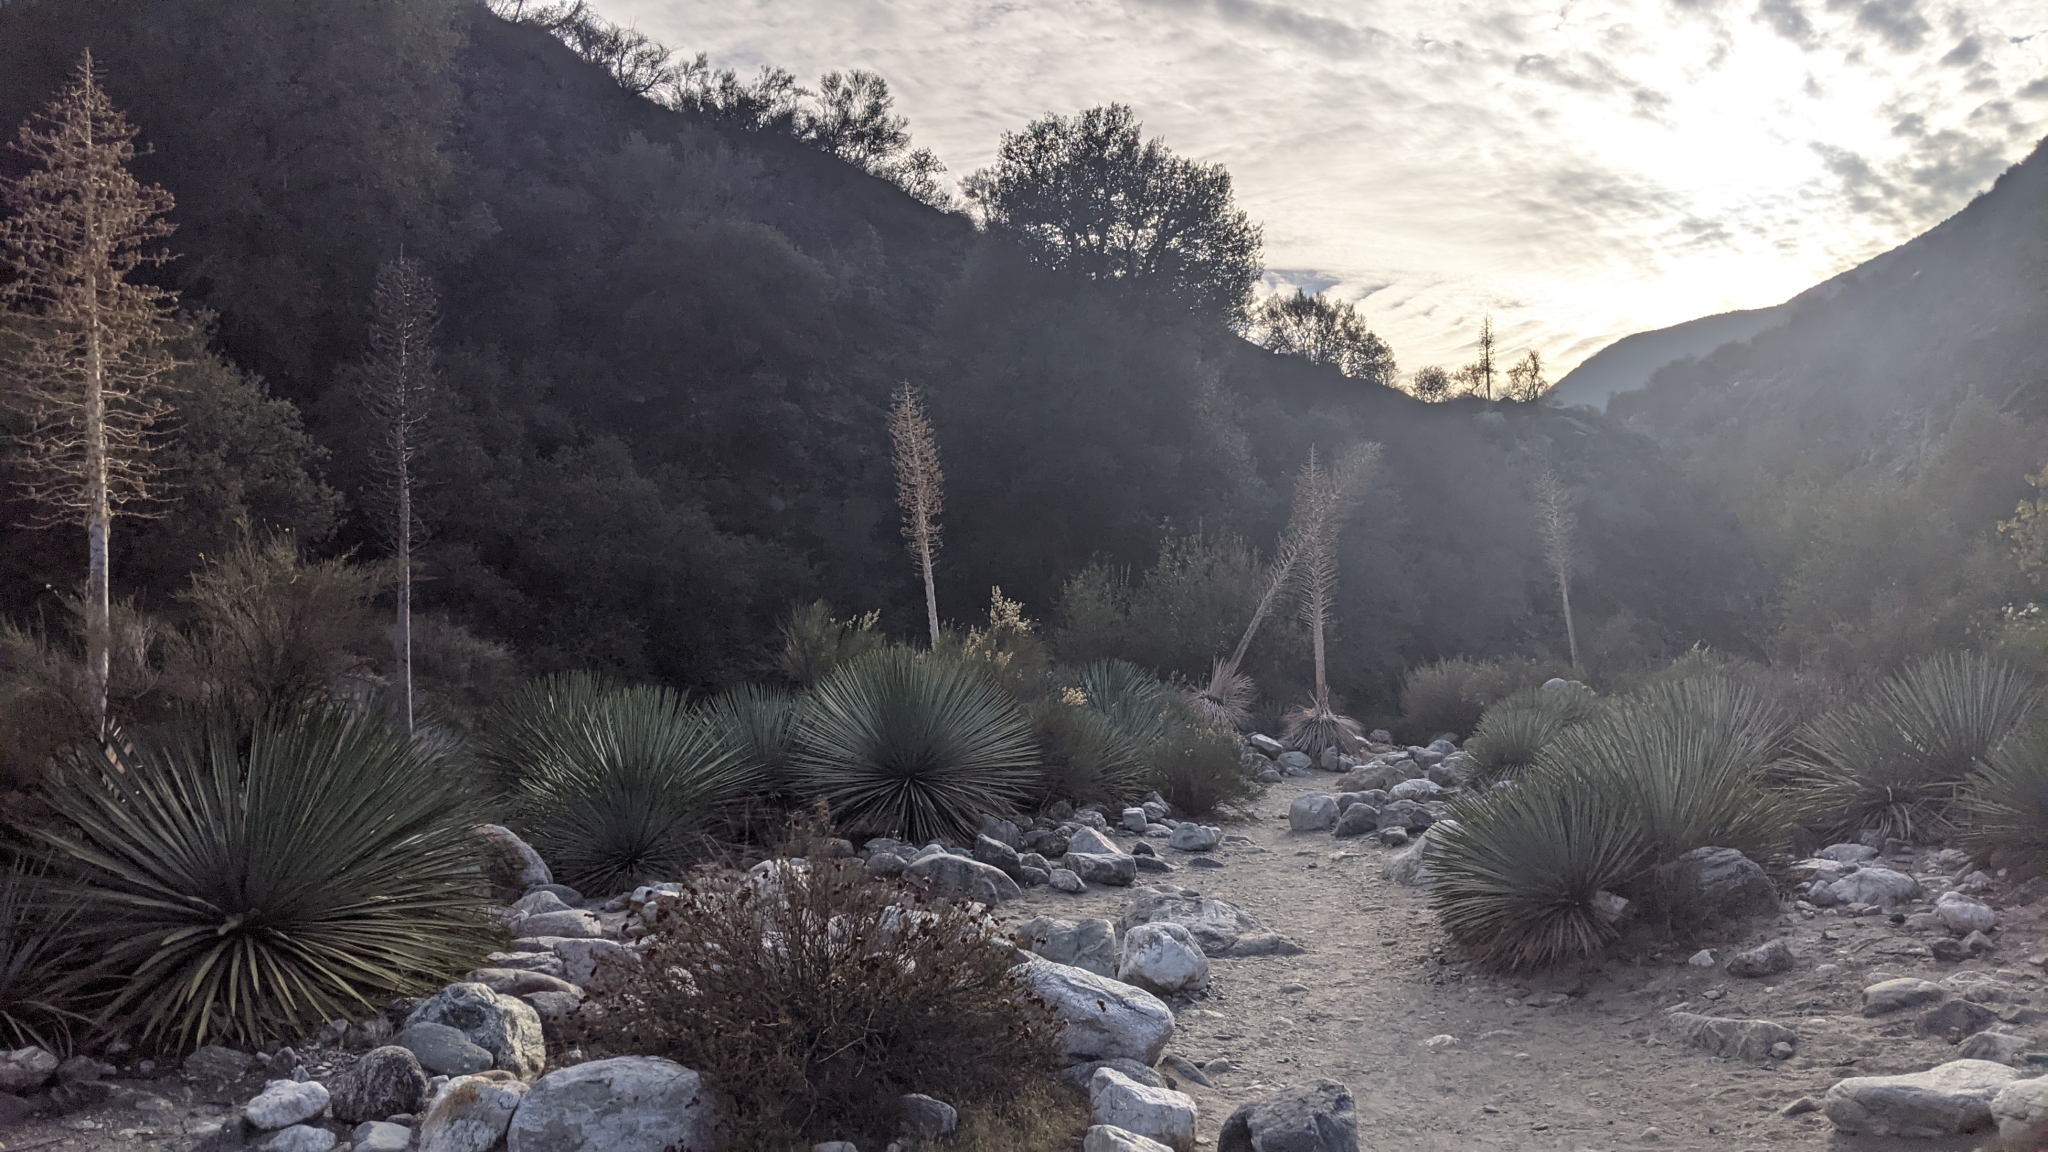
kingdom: Plantae
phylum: Tracheophyta
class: Liliopsida
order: Asparagales
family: Asparagaceae
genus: Hesperoyucca
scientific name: Hesperoyucca whipplei
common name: Our lord's-candle
